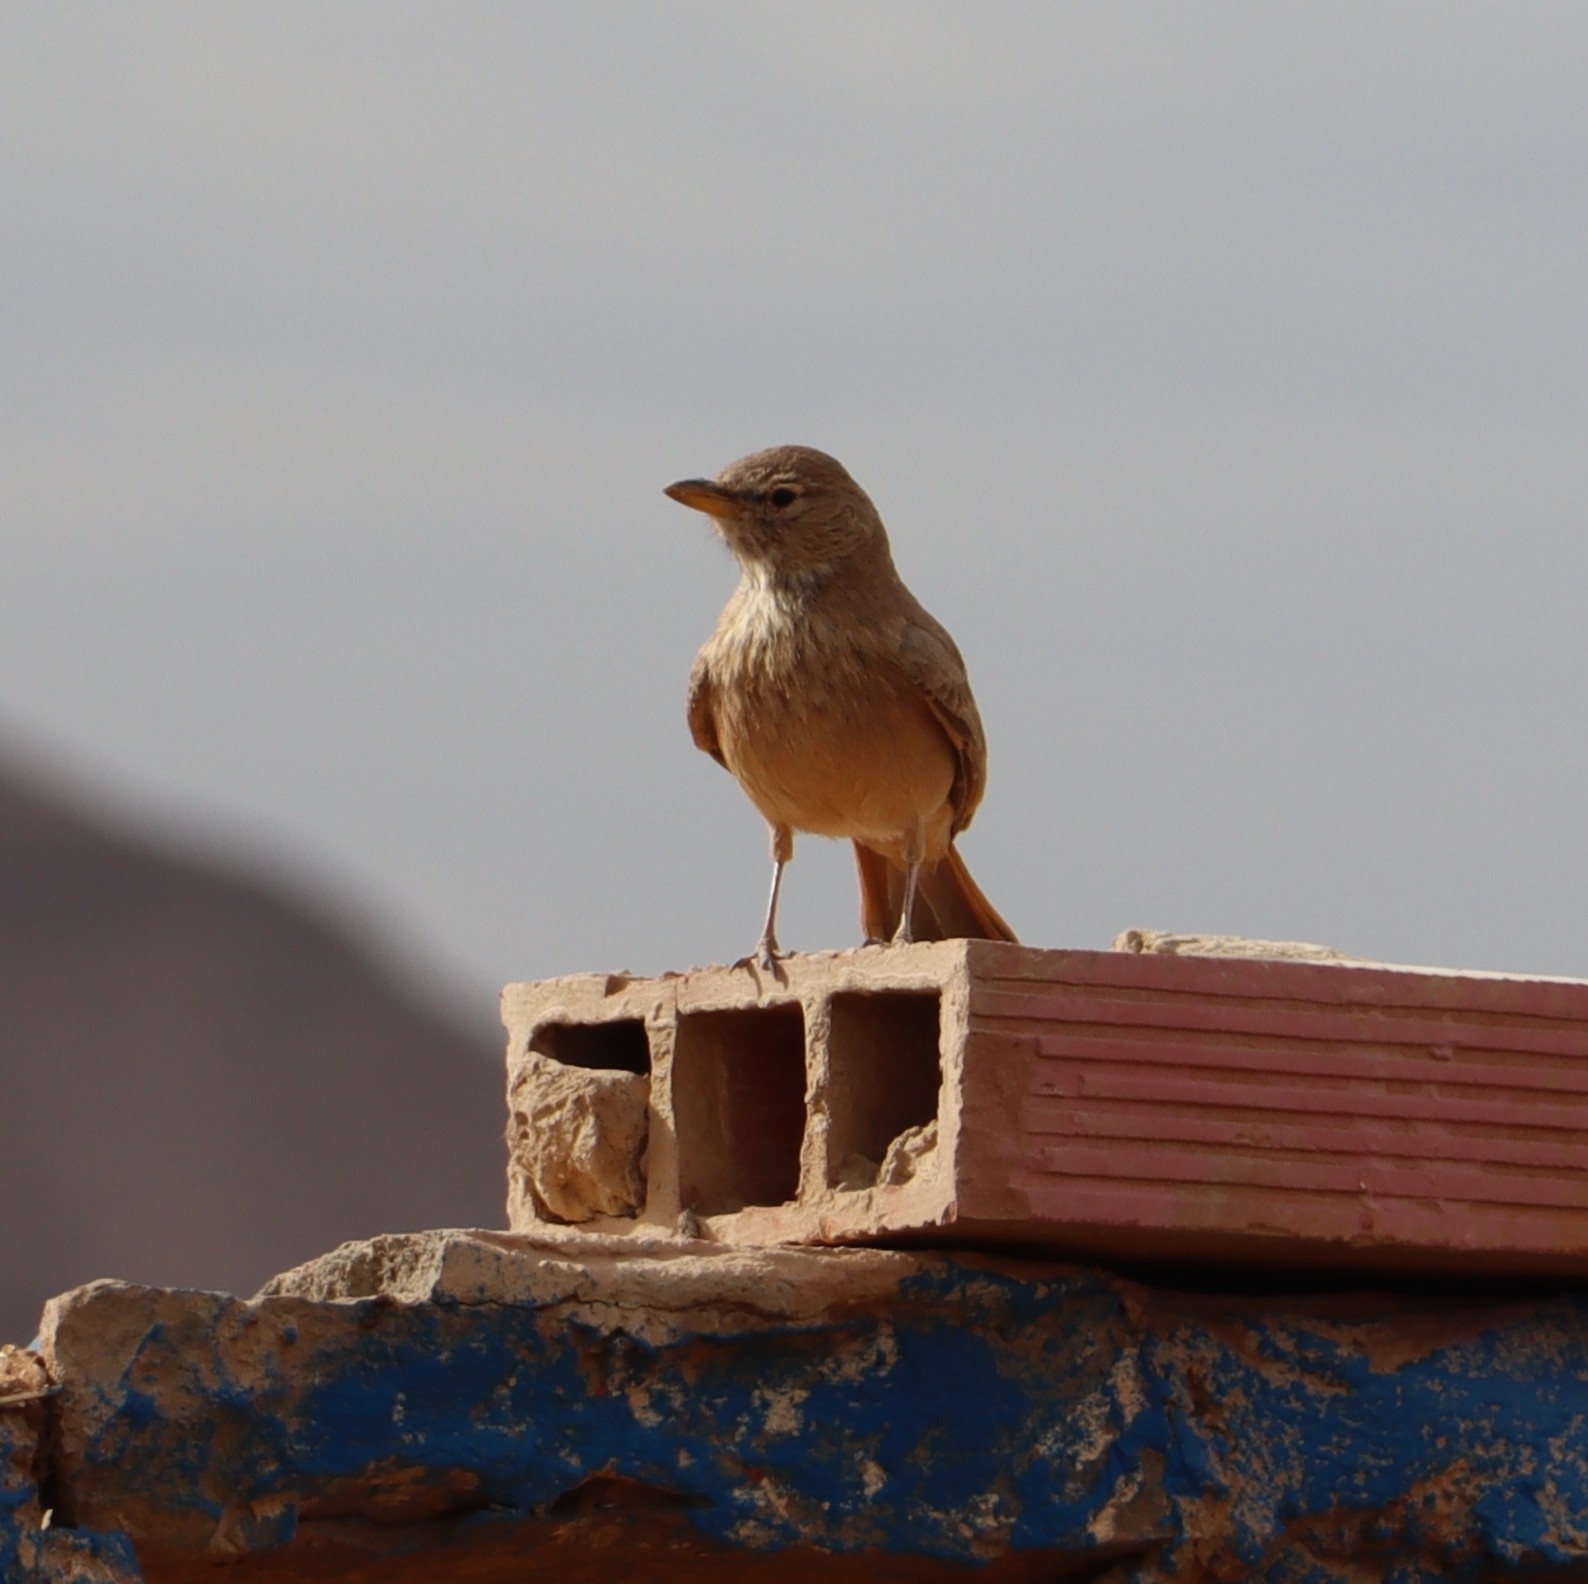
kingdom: Animalia
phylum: Chordata
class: Aves
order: Passeriformes
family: Alaudidae
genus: Ammomanes
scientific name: Ammomanes deserti
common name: Desert lark
